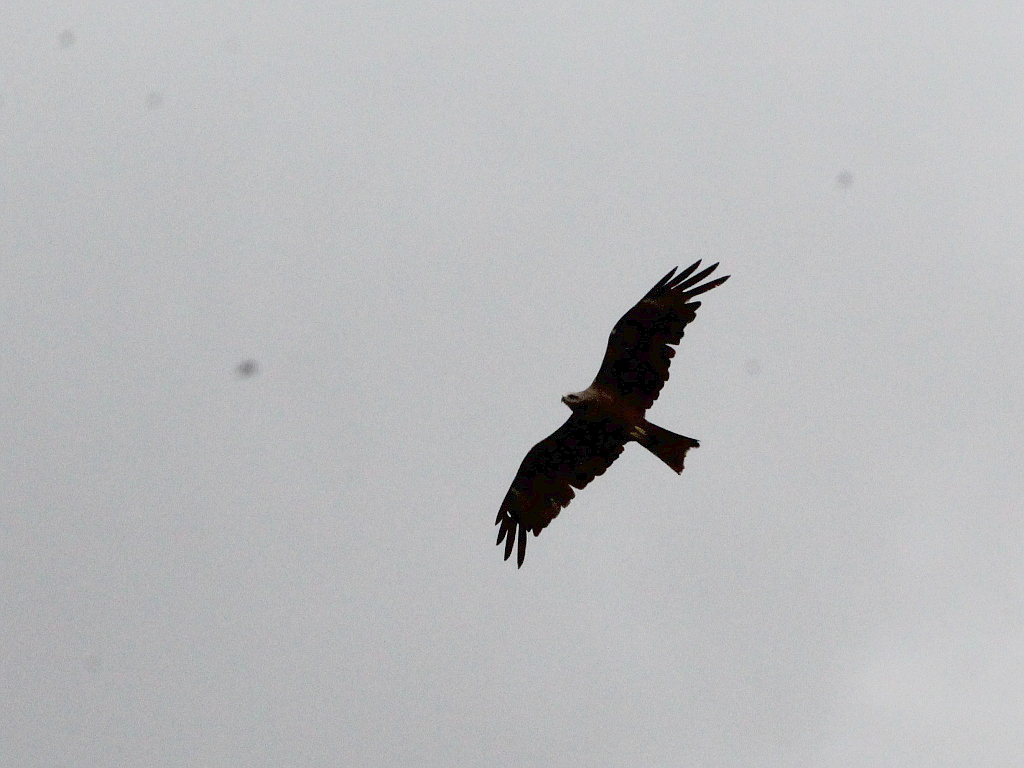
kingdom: Animalia
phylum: Chordata
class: Aves
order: Accipitriformes
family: Accipitridae
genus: Milvus
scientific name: Milvus migrans
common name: Black kite
